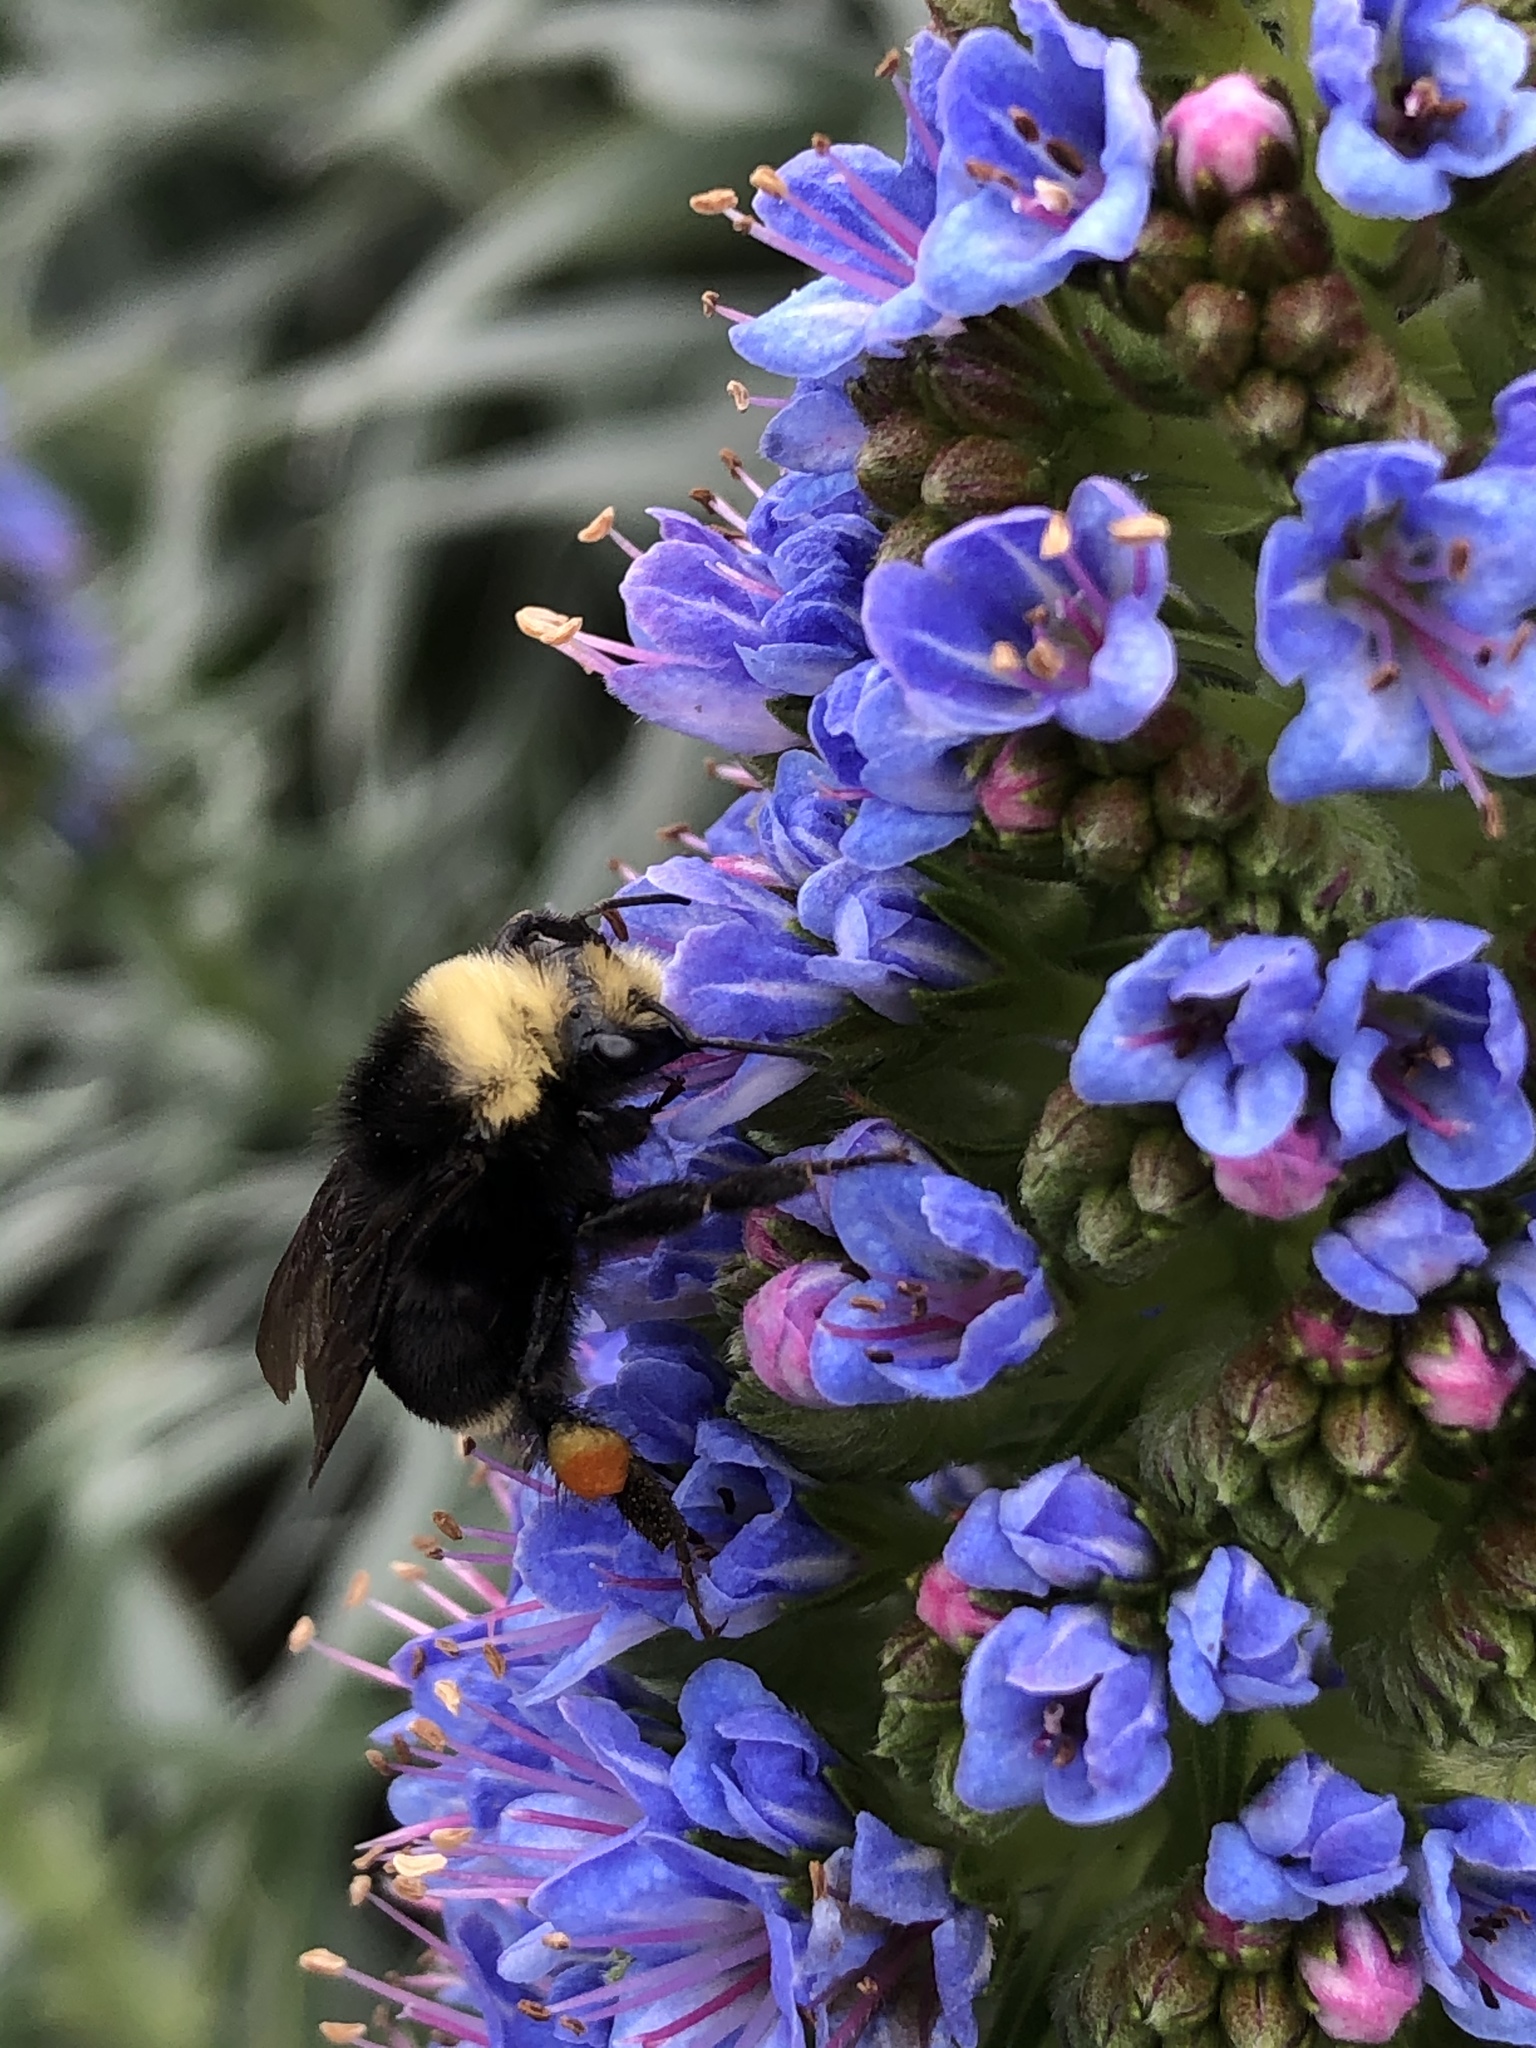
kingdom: Animalia
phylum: Arthropoda
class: Insecta
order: Hymenoptera
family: Apidae
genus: Bombus
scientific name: Bombus vosnesenskii
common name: Vosnesensky bumble bee
